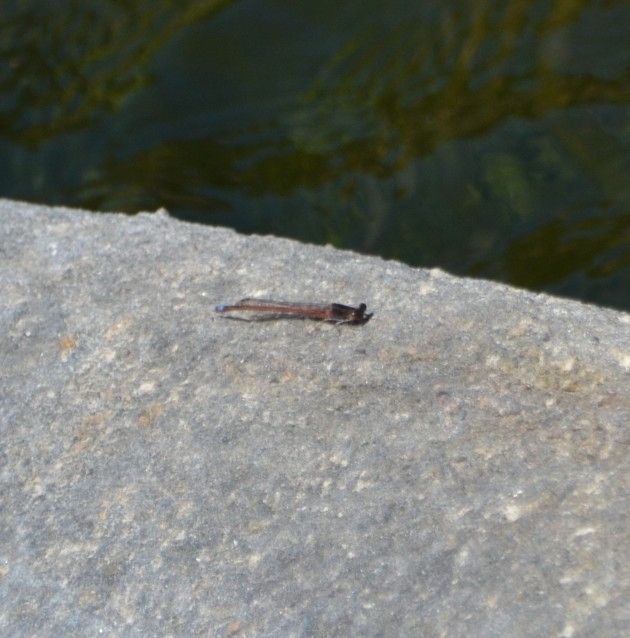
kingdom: Animalia
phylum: Arthropoda
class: Insecta
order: Odonata
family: Coenagrionidae
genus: Oxyagrion
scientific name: Oxyagrion rubidum
